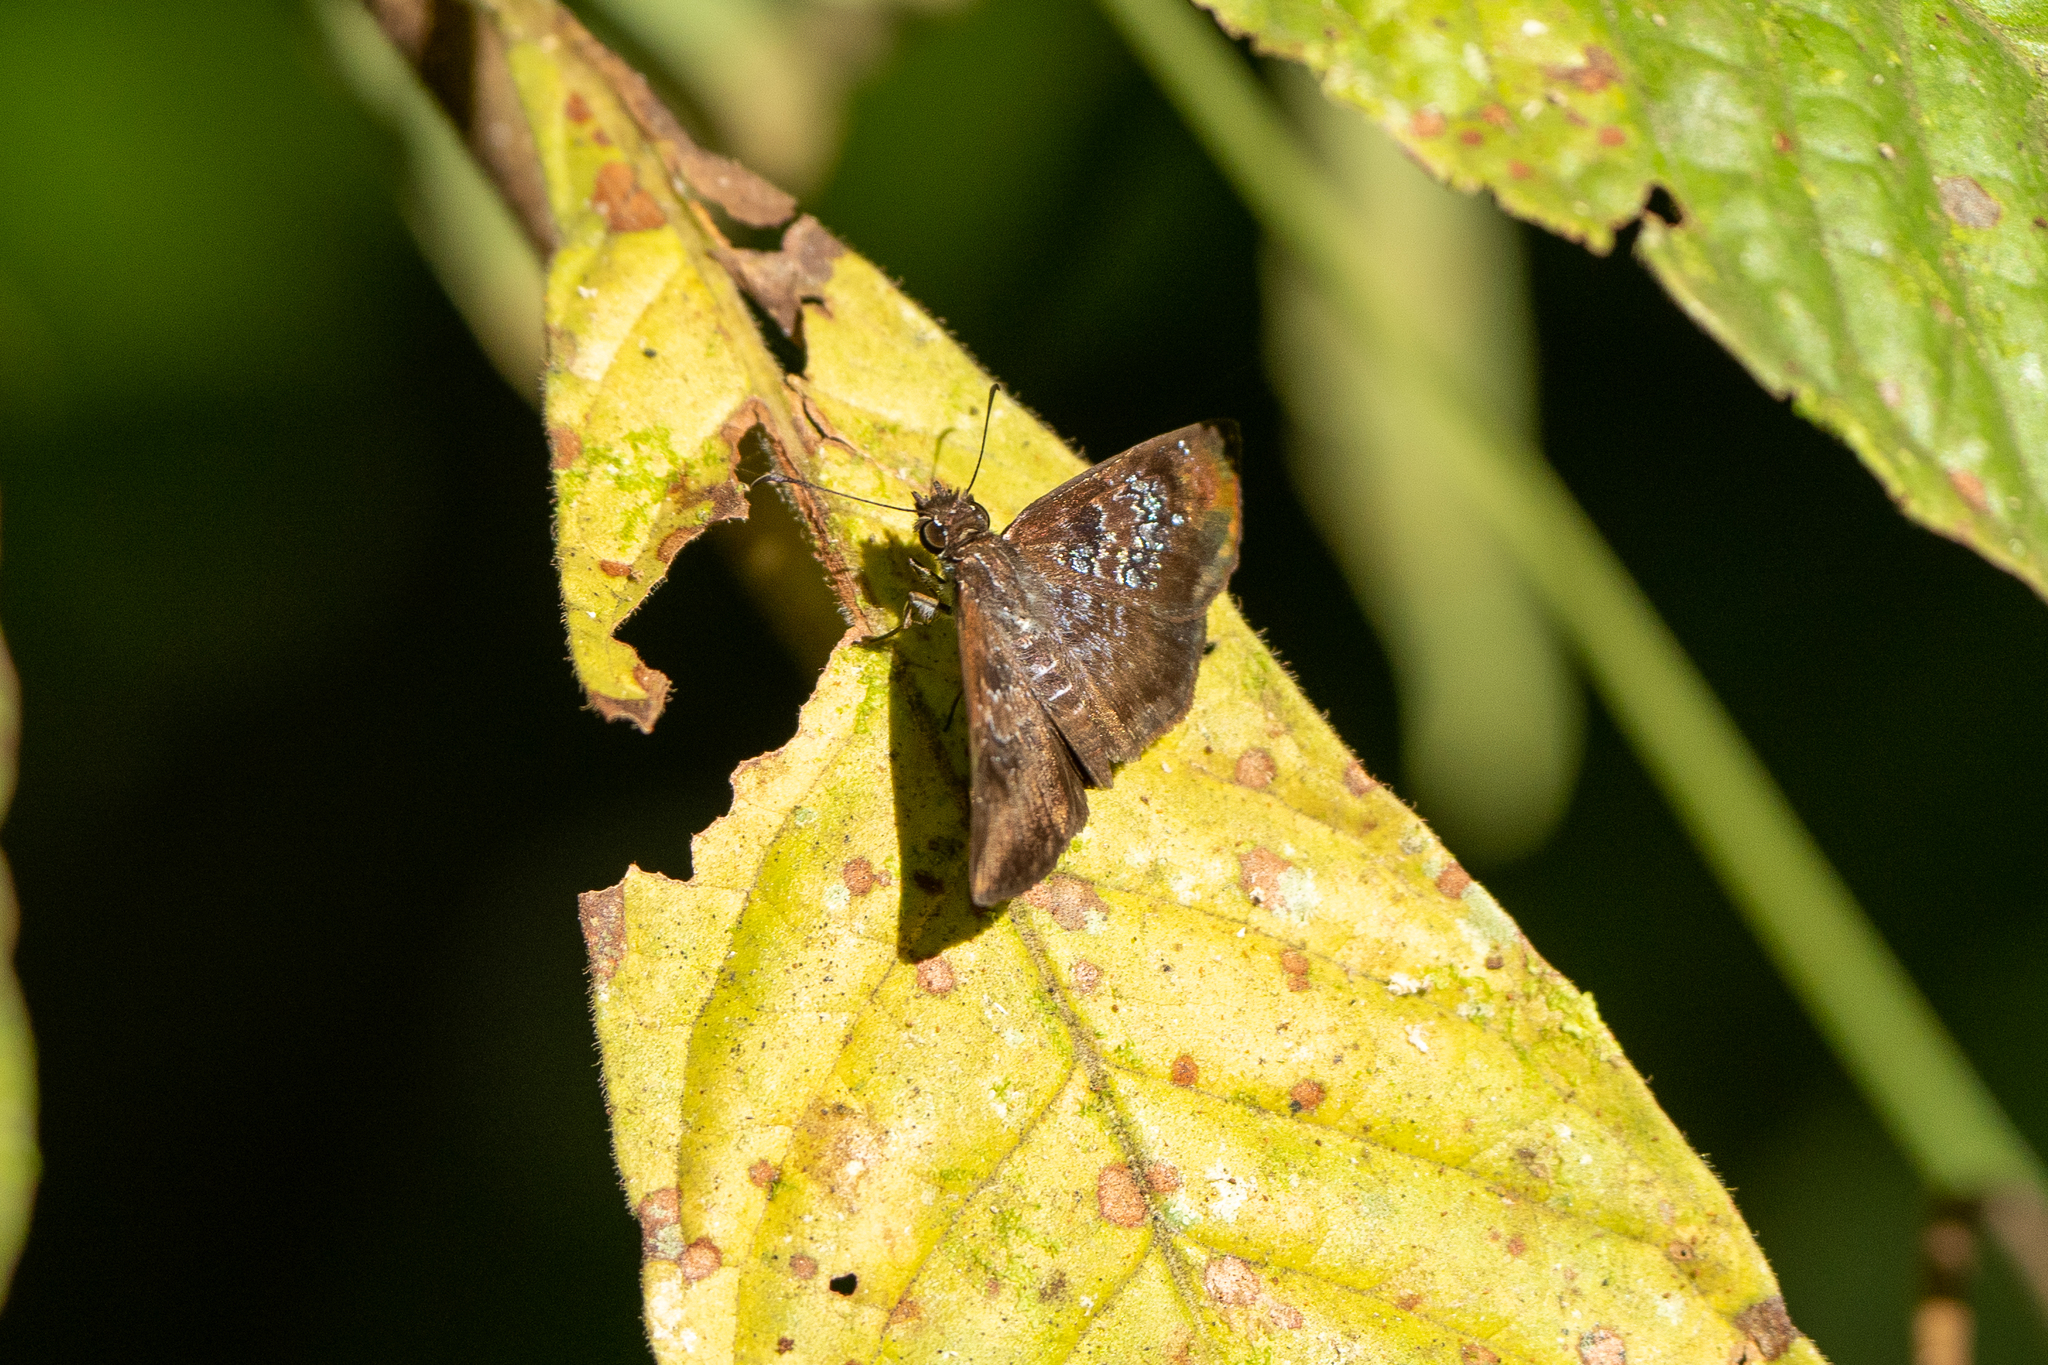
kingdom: Animalia
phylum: Arthropoda
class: Insecta
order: Lepidoptera
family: Hesperiidae
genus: Sophista
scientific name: Sophista bifasciata
